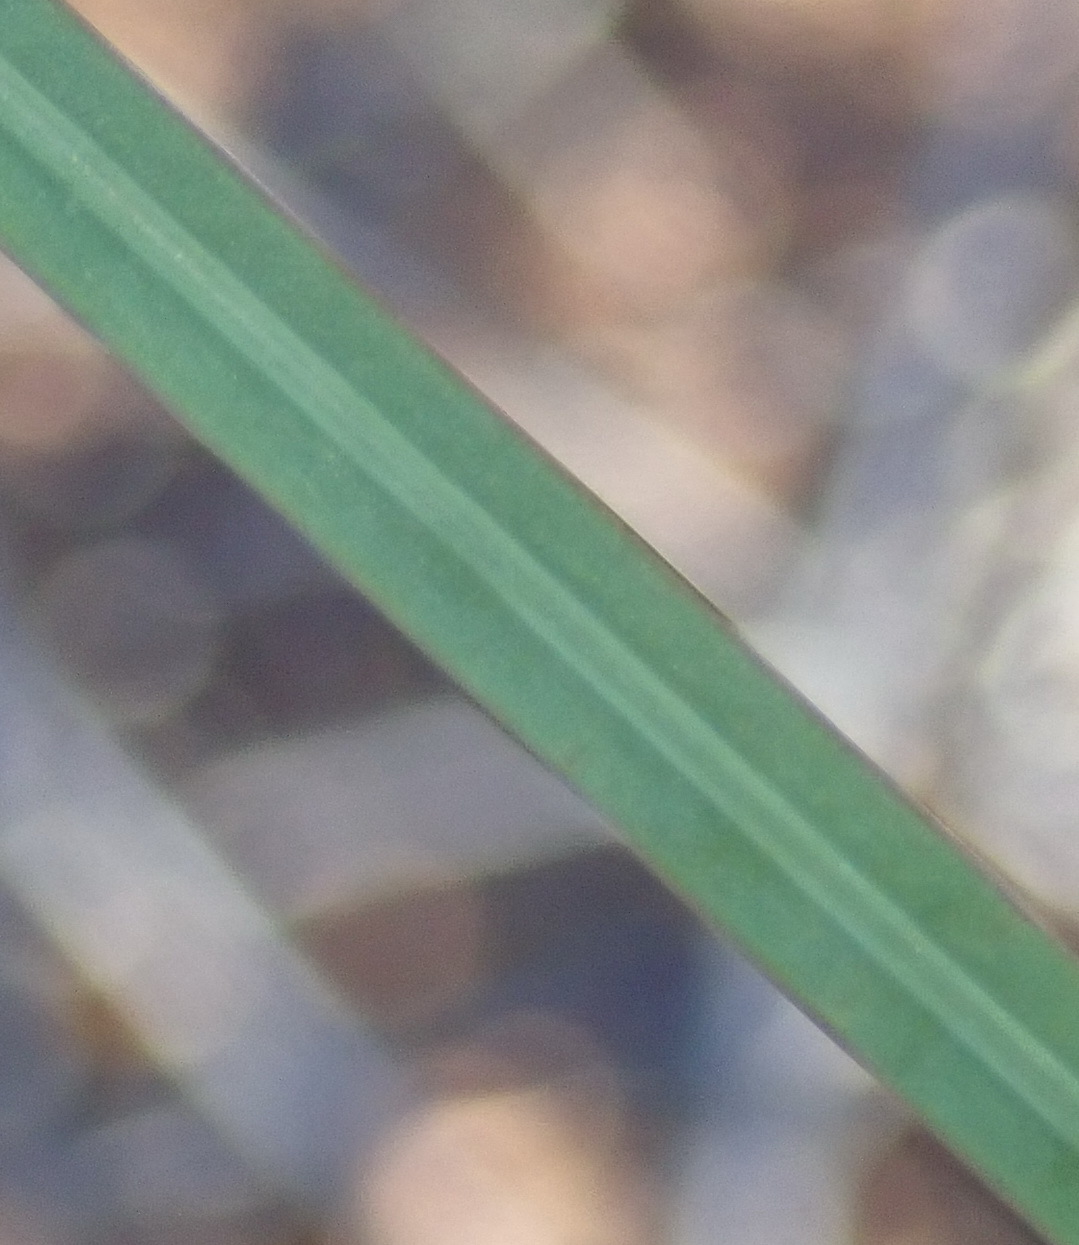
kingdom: Plantae
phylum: Tracheophyta
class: Liliopsida
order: Asparagales
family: Iridaceae
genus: Gladiolus
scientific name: Gladiolus carinatus
